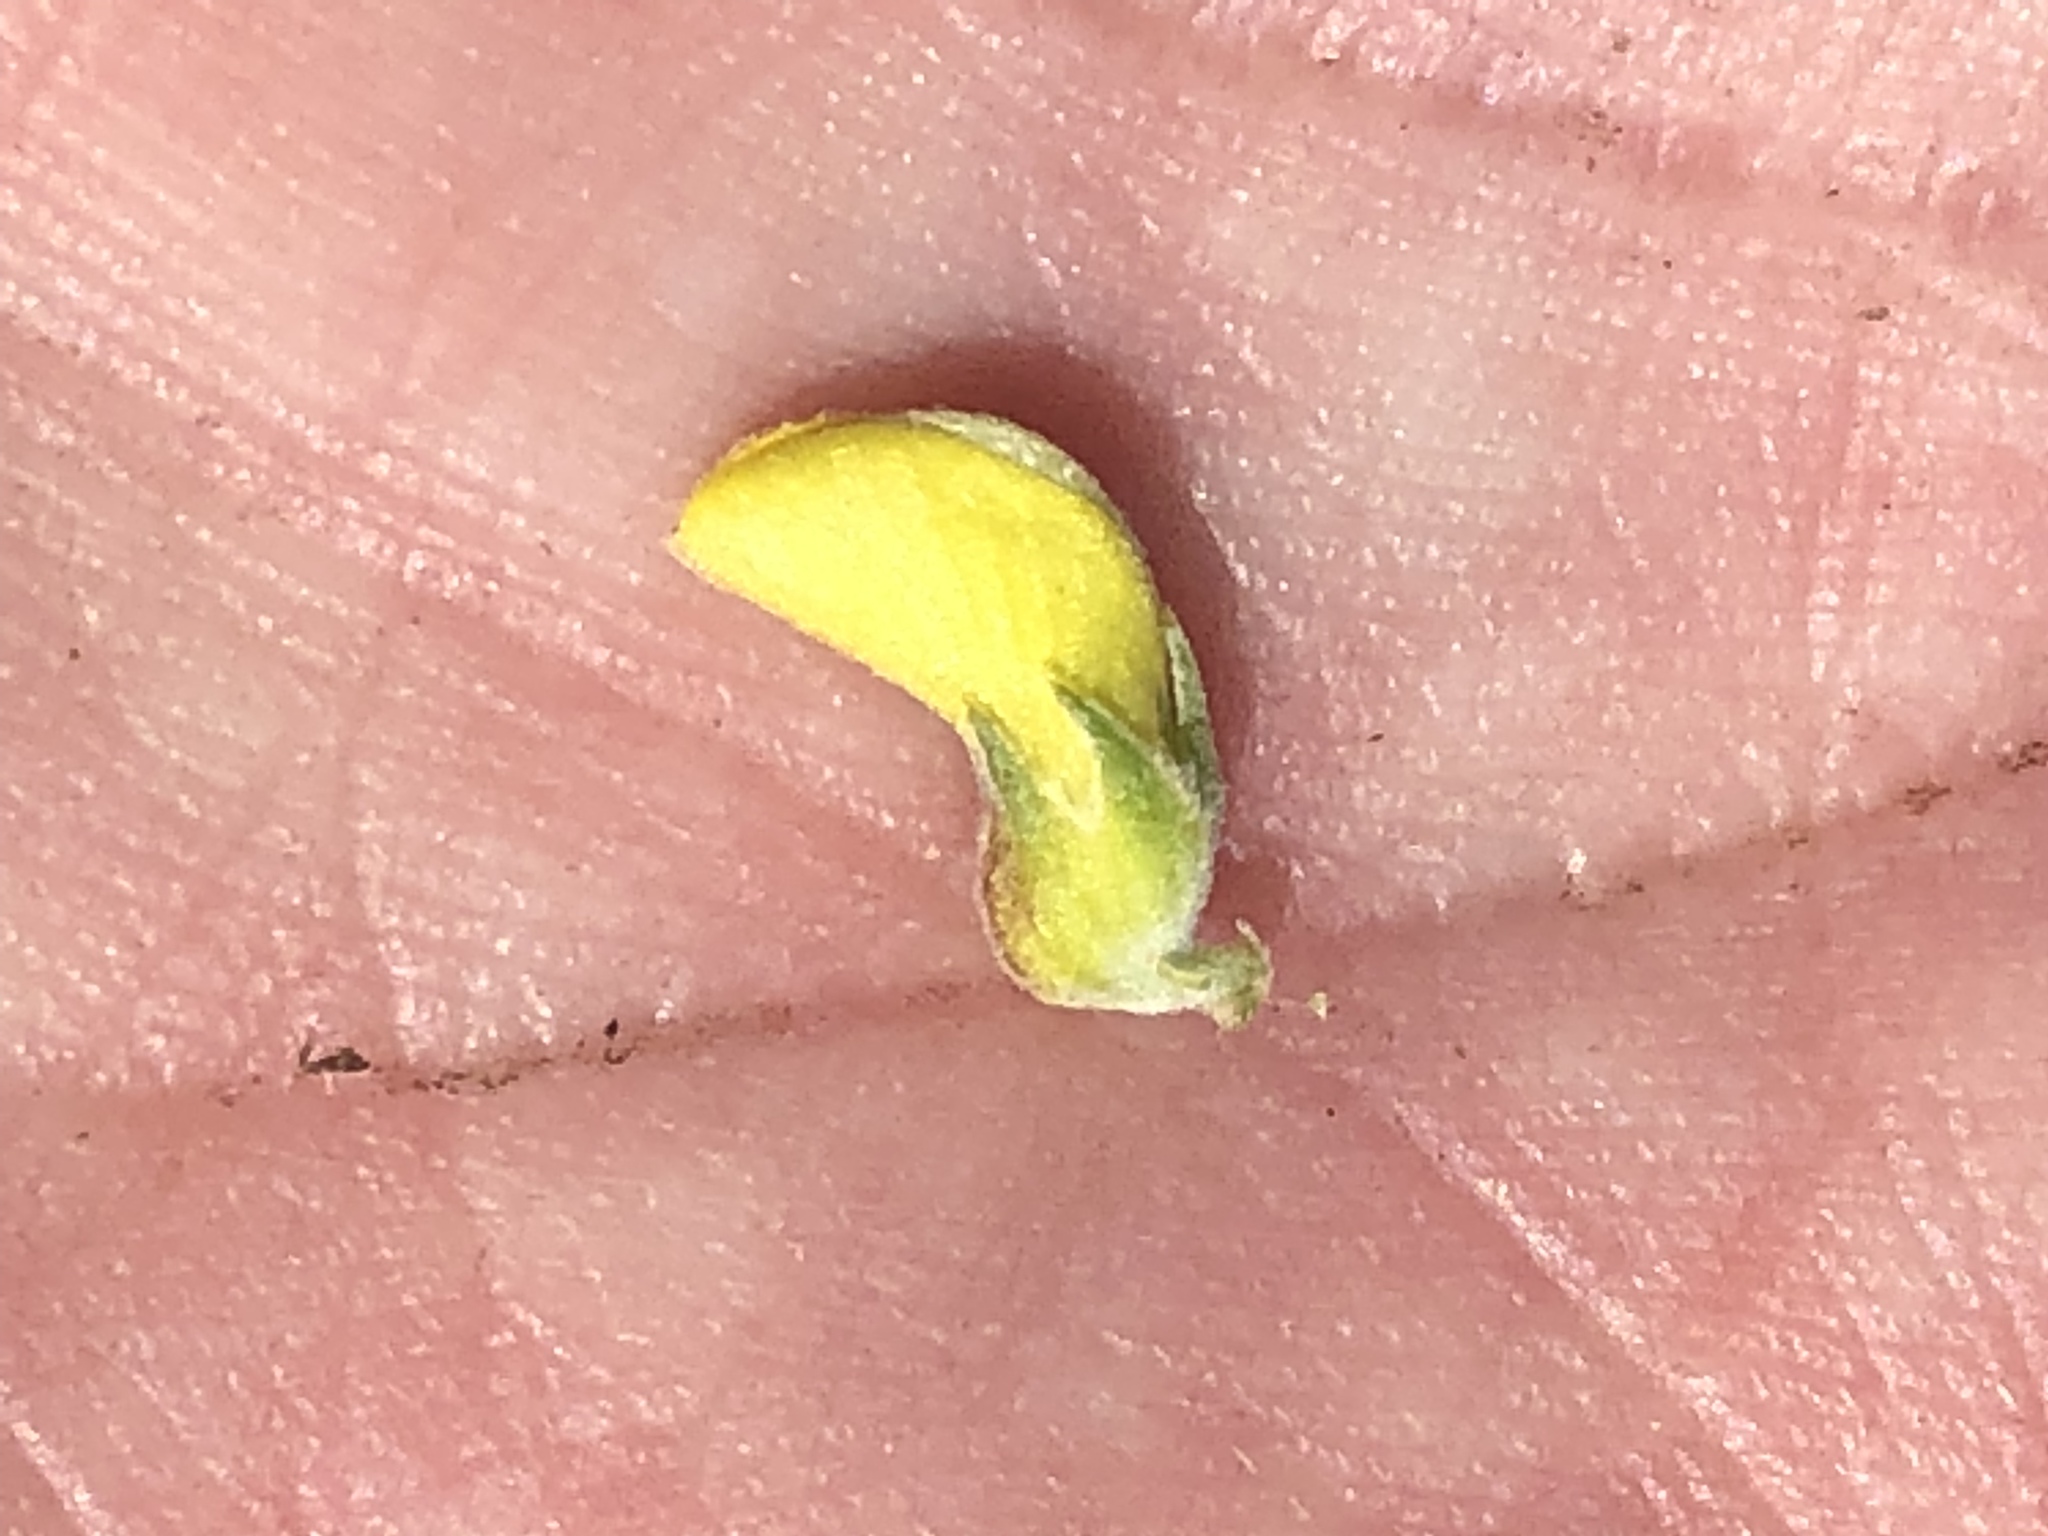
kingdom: Plantae
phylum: Tracheophyta
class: Magnoliopsida
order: Fabales
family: Fabaceae
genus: Aspalathus
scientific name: Aspalathus kougaensis
